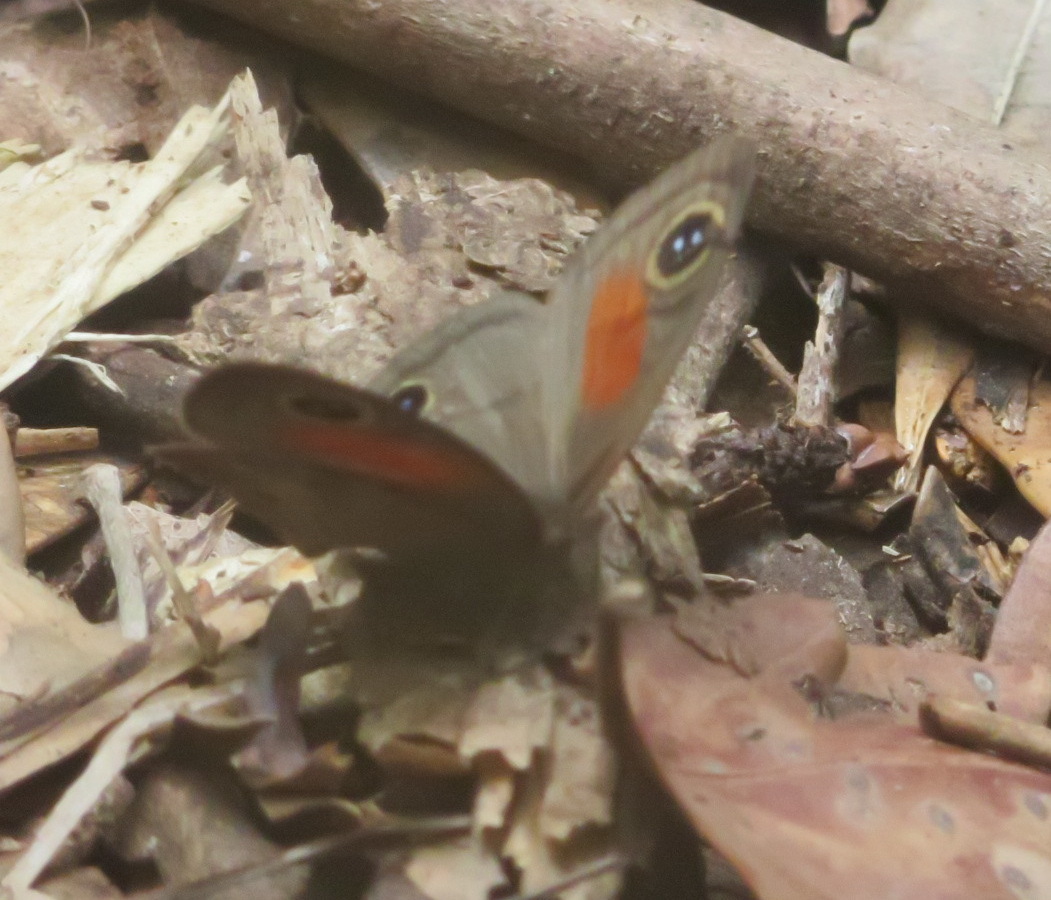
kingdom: Animalia
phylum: Arthropoda
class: Insecta
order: Lepidoptera
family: Nymphalidae
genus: Cassionympha
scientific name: Cassionympha cassius
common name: Rainforest brown
